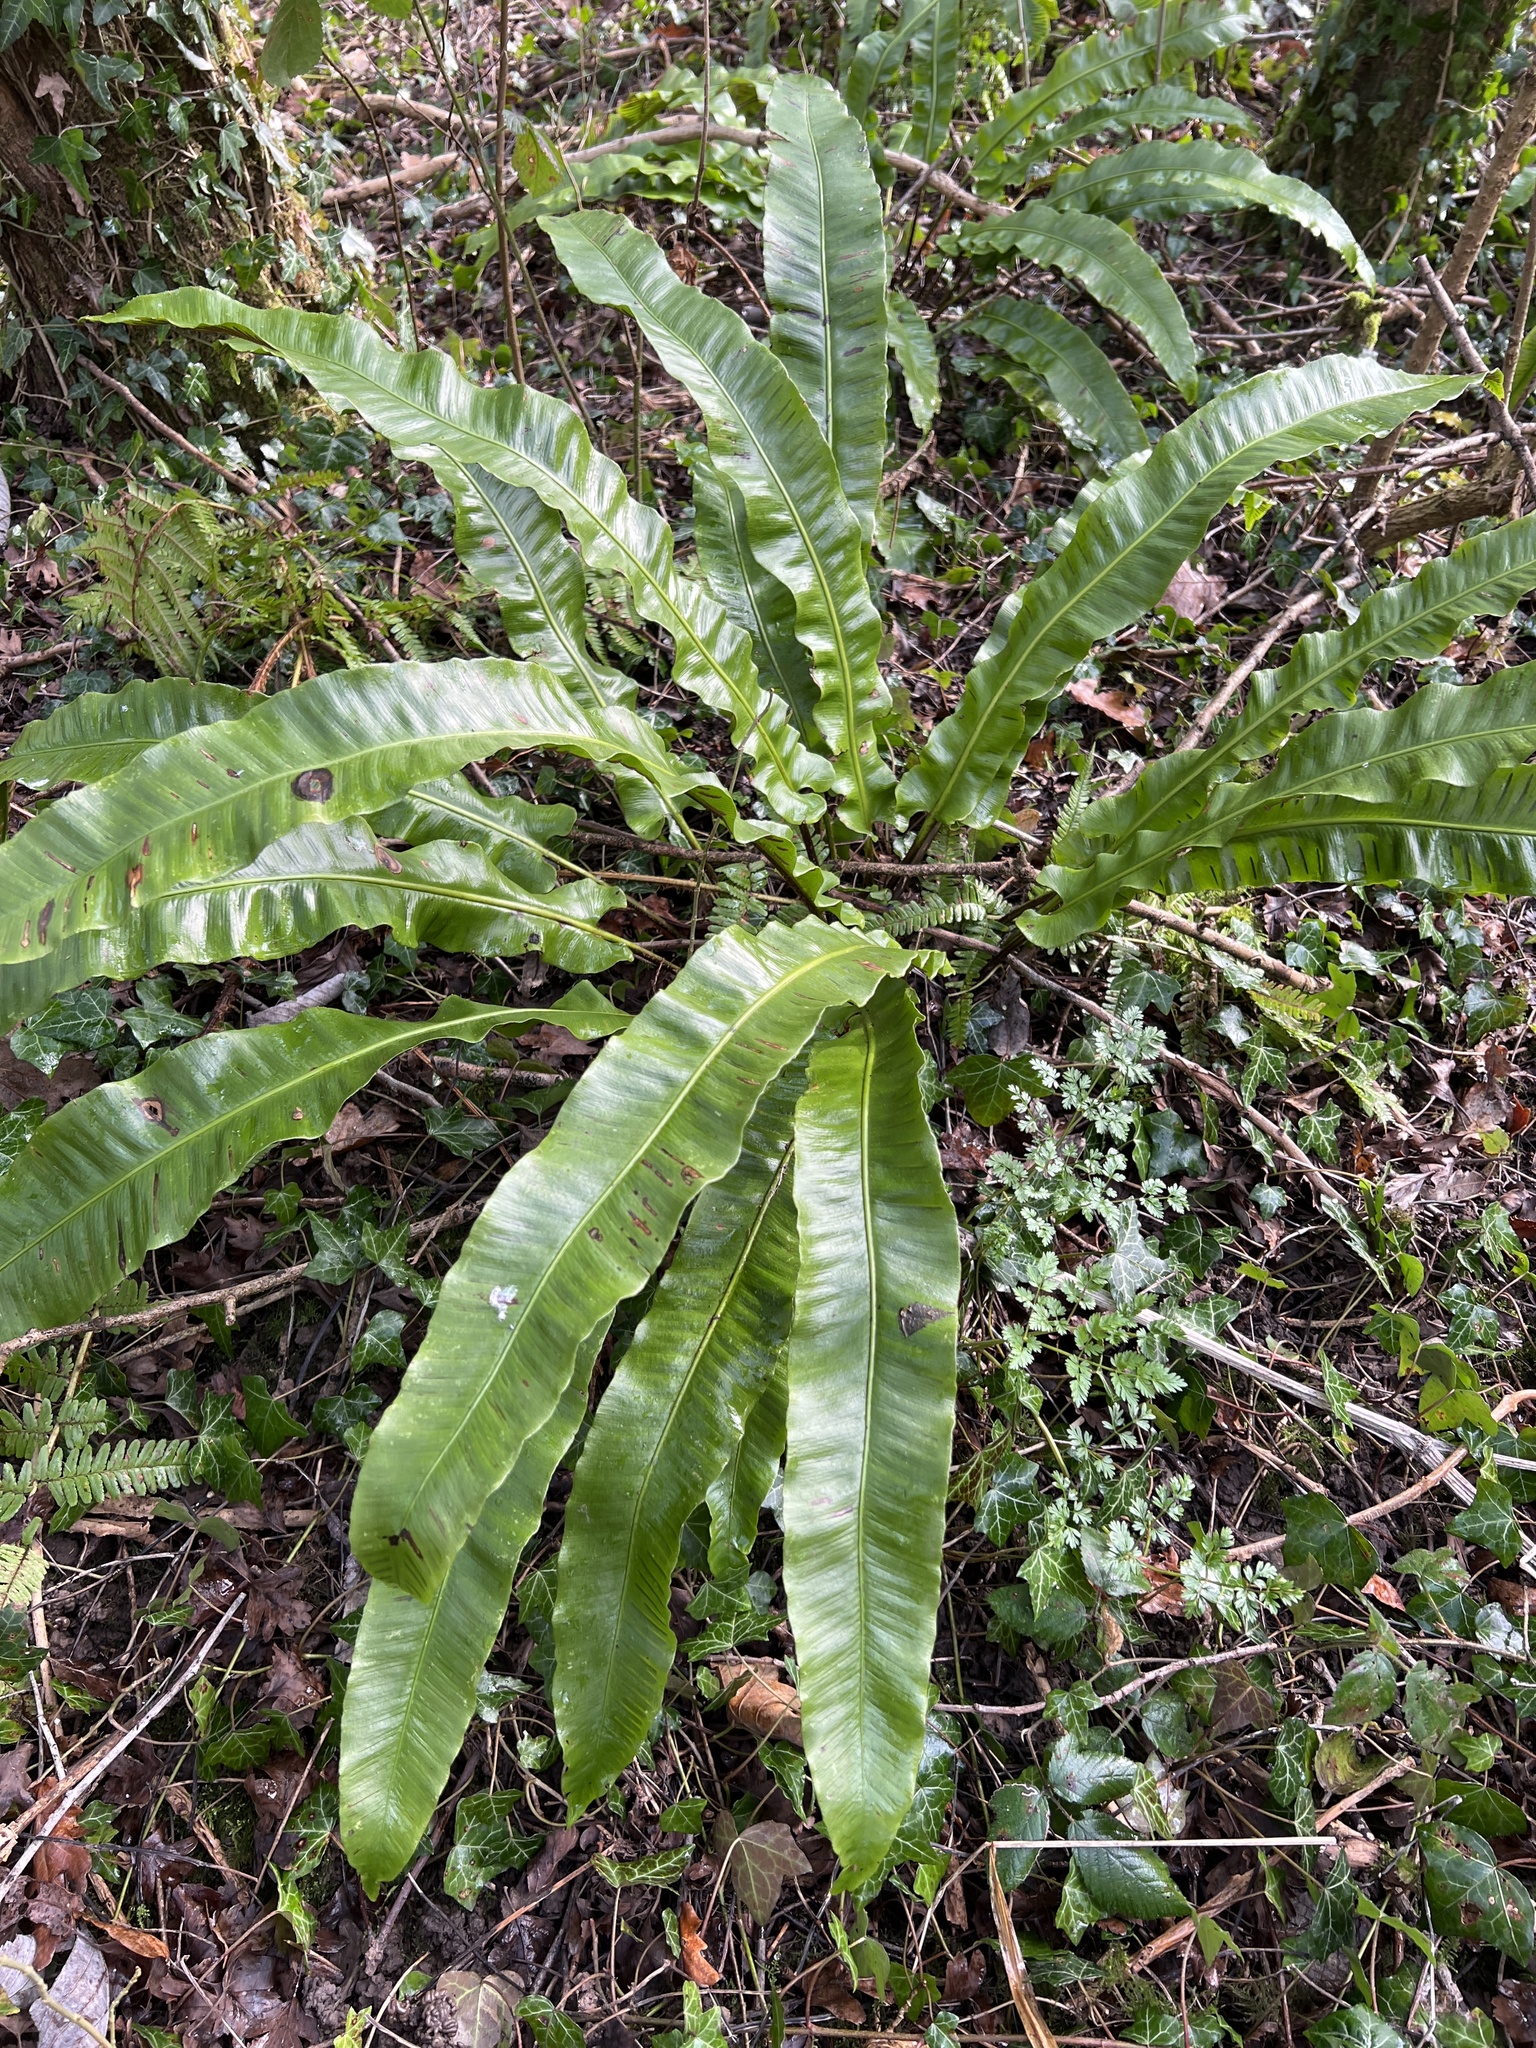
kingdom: Plantae
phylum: Tracheophyta
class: Polypodiopsida
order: Polypodiales
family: Aspleniaceae
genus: Asplenium
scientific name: Asplenium scolopendrium
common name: Hart's-tongue fern
